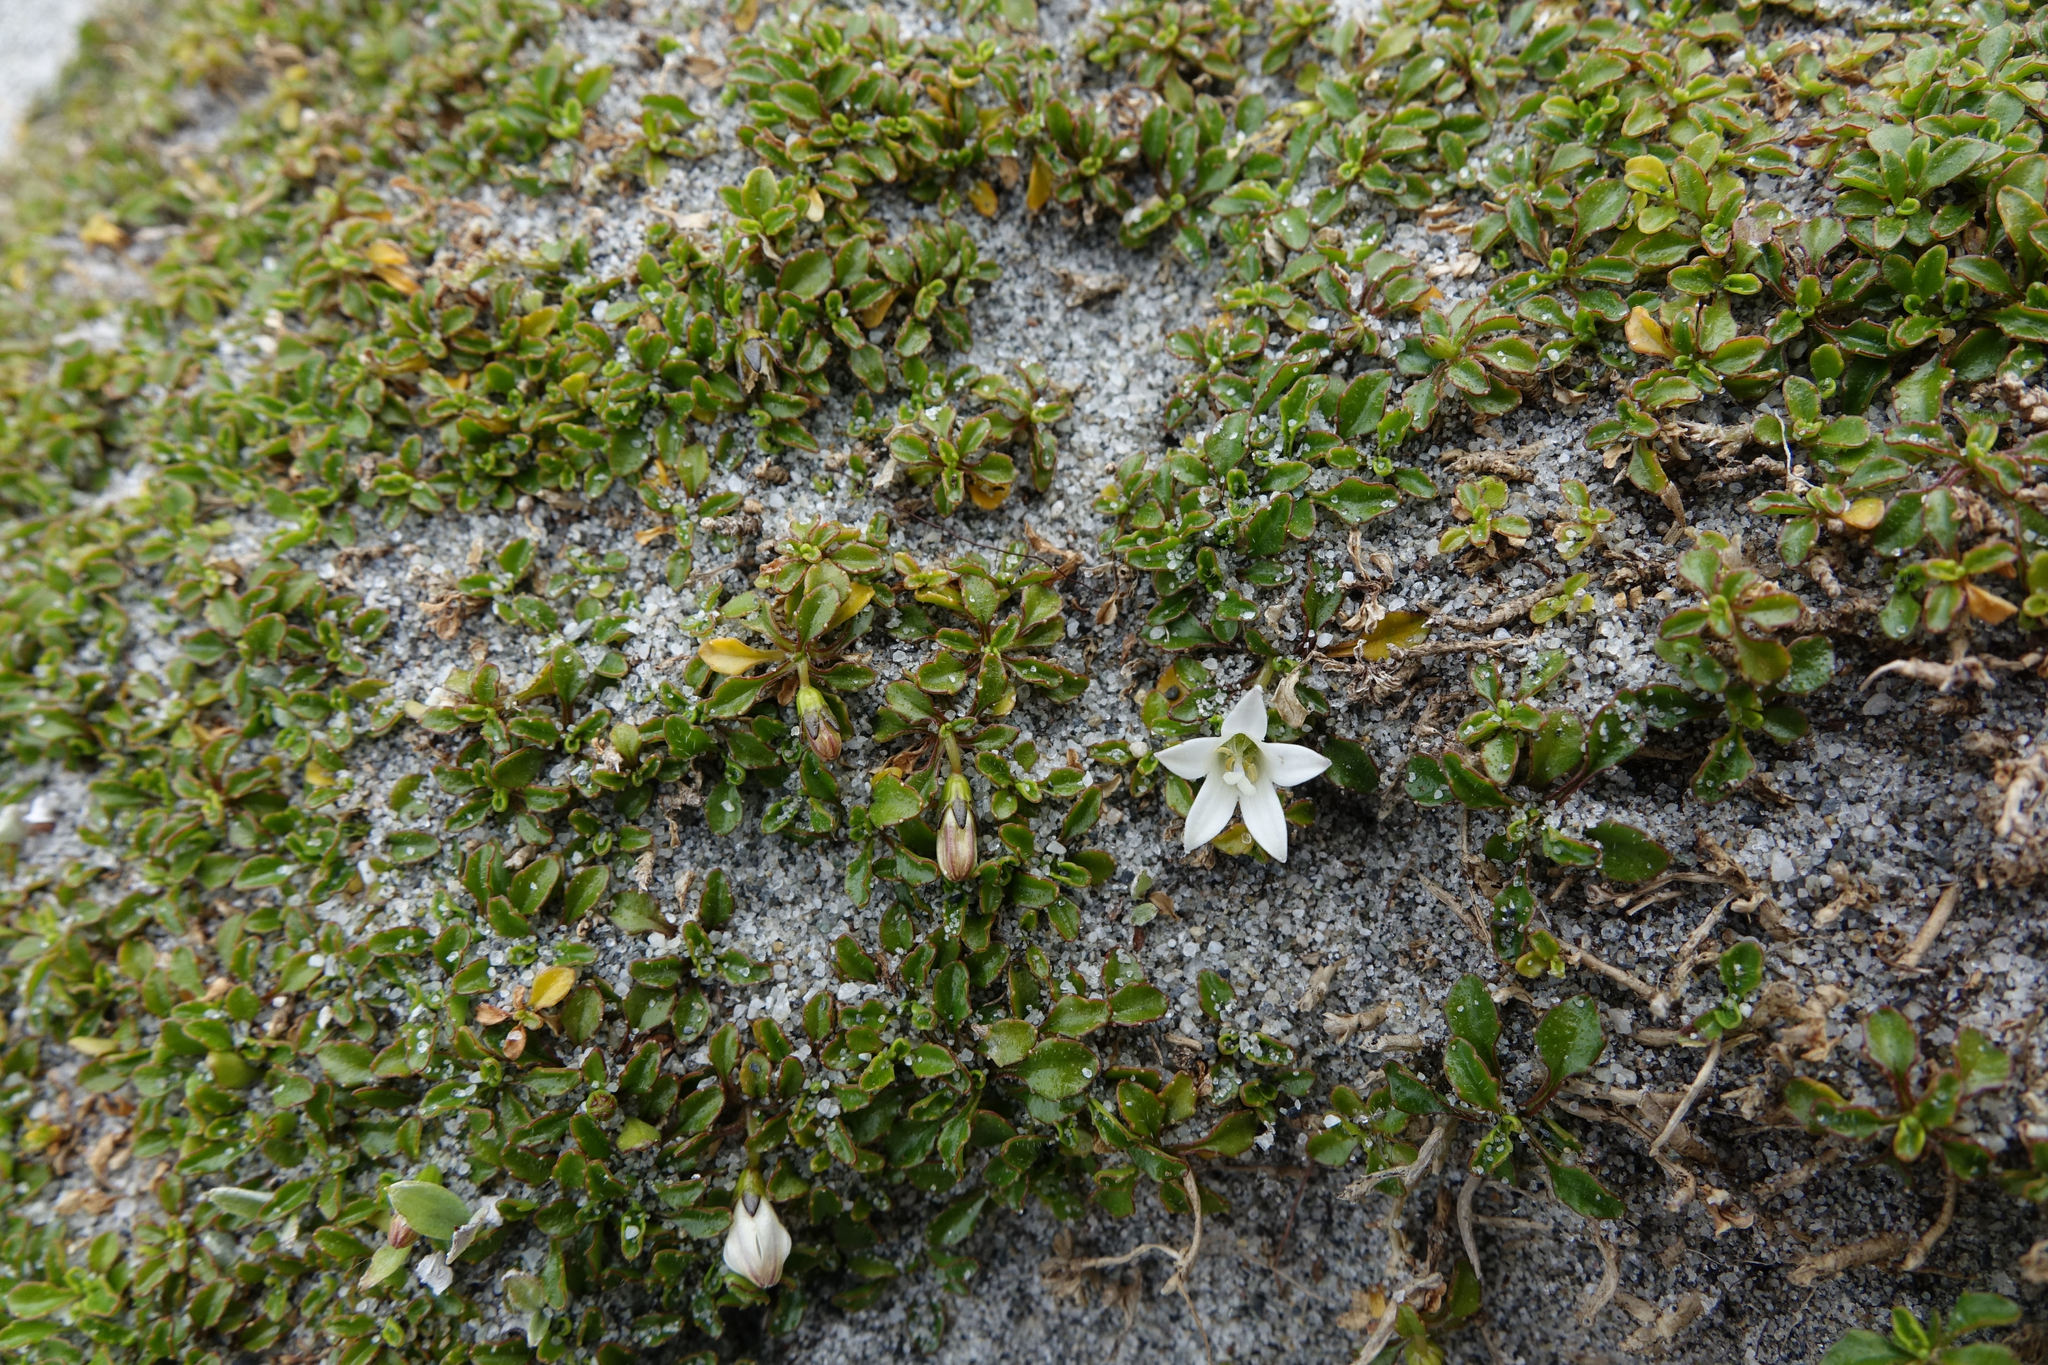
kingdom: Plantae
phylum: Tracheophyta
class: Magnoliopsida
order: Asterales
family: Campanulaceae
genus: Wahlenbergia
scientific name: Wahlenbergia congesta
